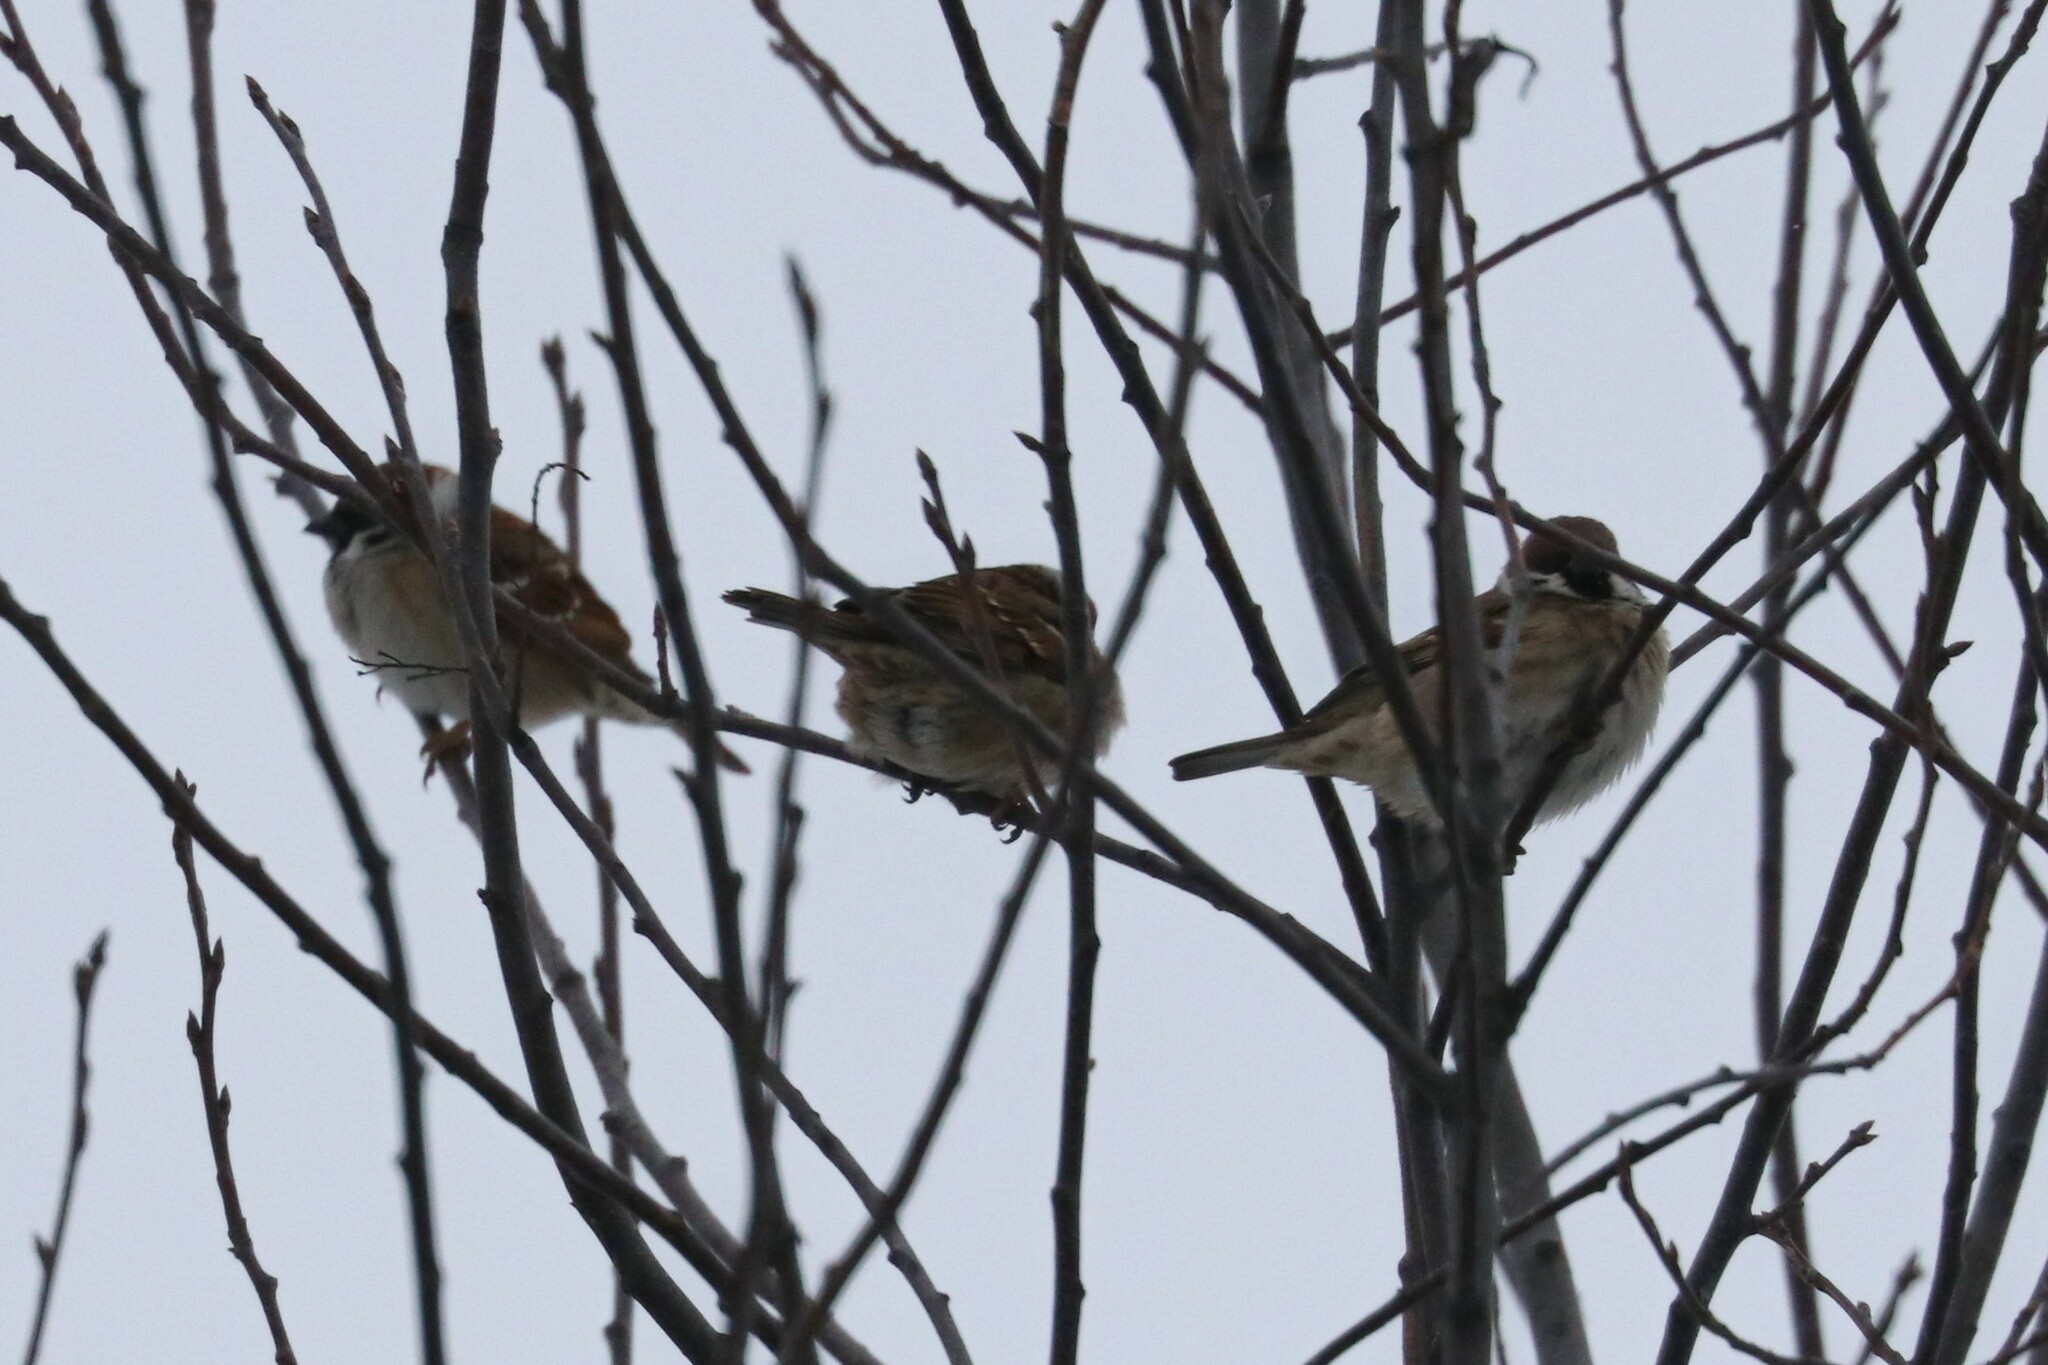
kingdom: Animalia
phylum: Chordata
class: Aves
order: Passeriformes
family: Passeridae
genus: Passer
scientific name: Passer montanus
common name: Eurasian tree sparrow
